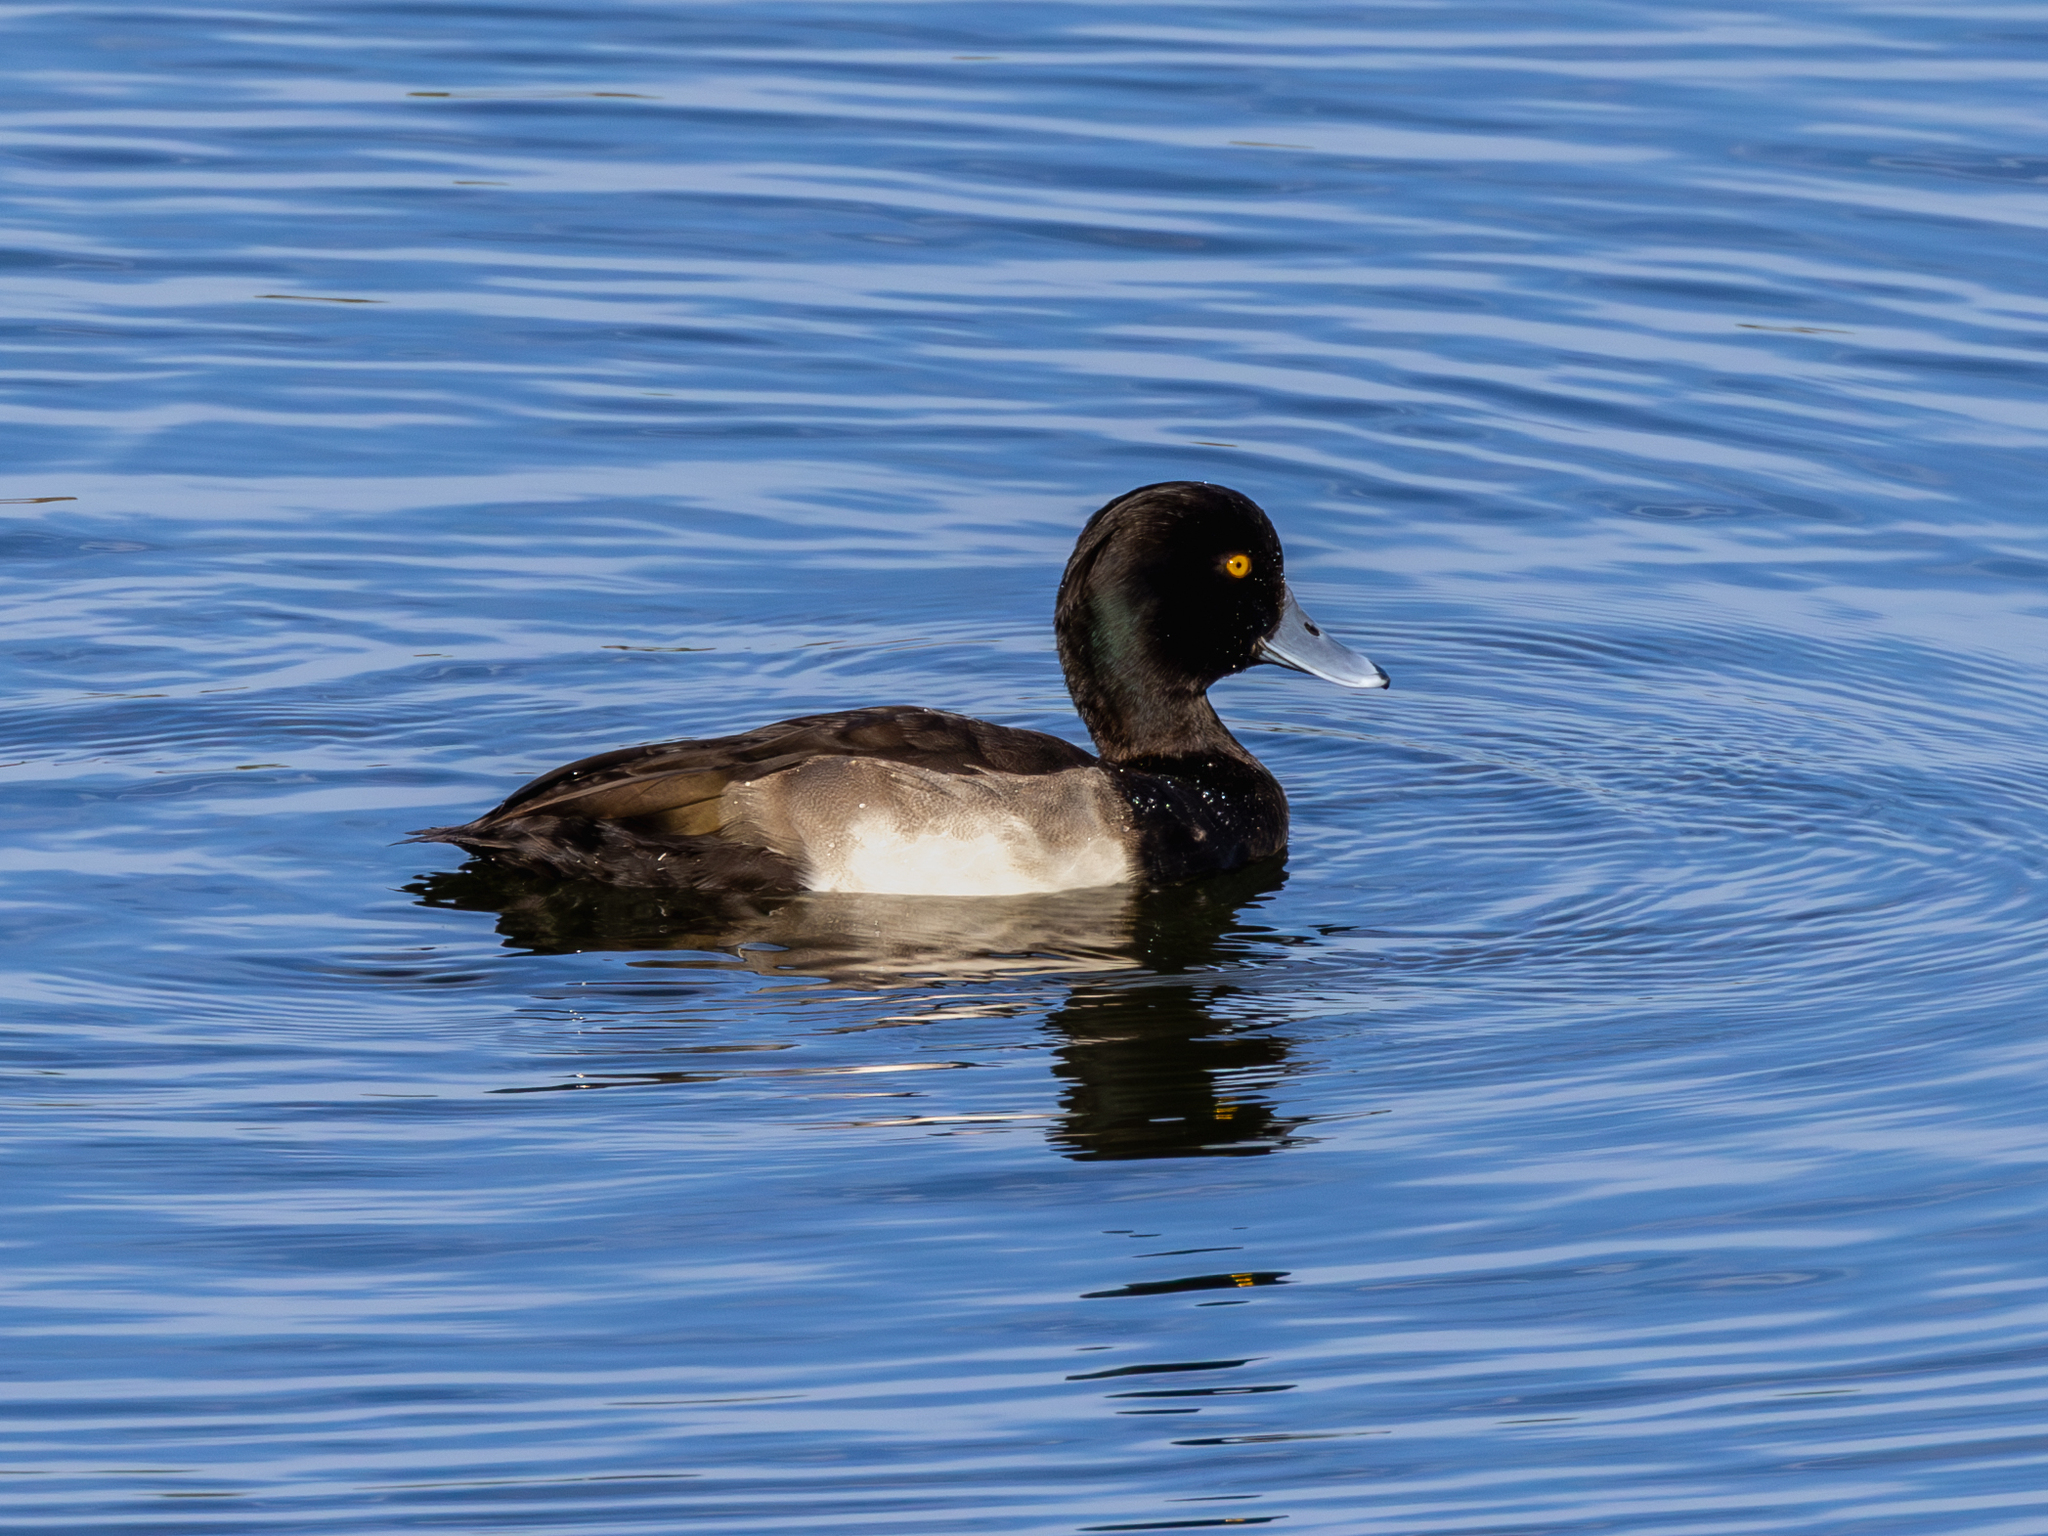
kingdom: Animalia
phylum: Chordata
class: Aves
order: Anseriformes
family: Anatidae
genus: Aythya
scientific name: Aythya fuligula
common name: Tufted duck
